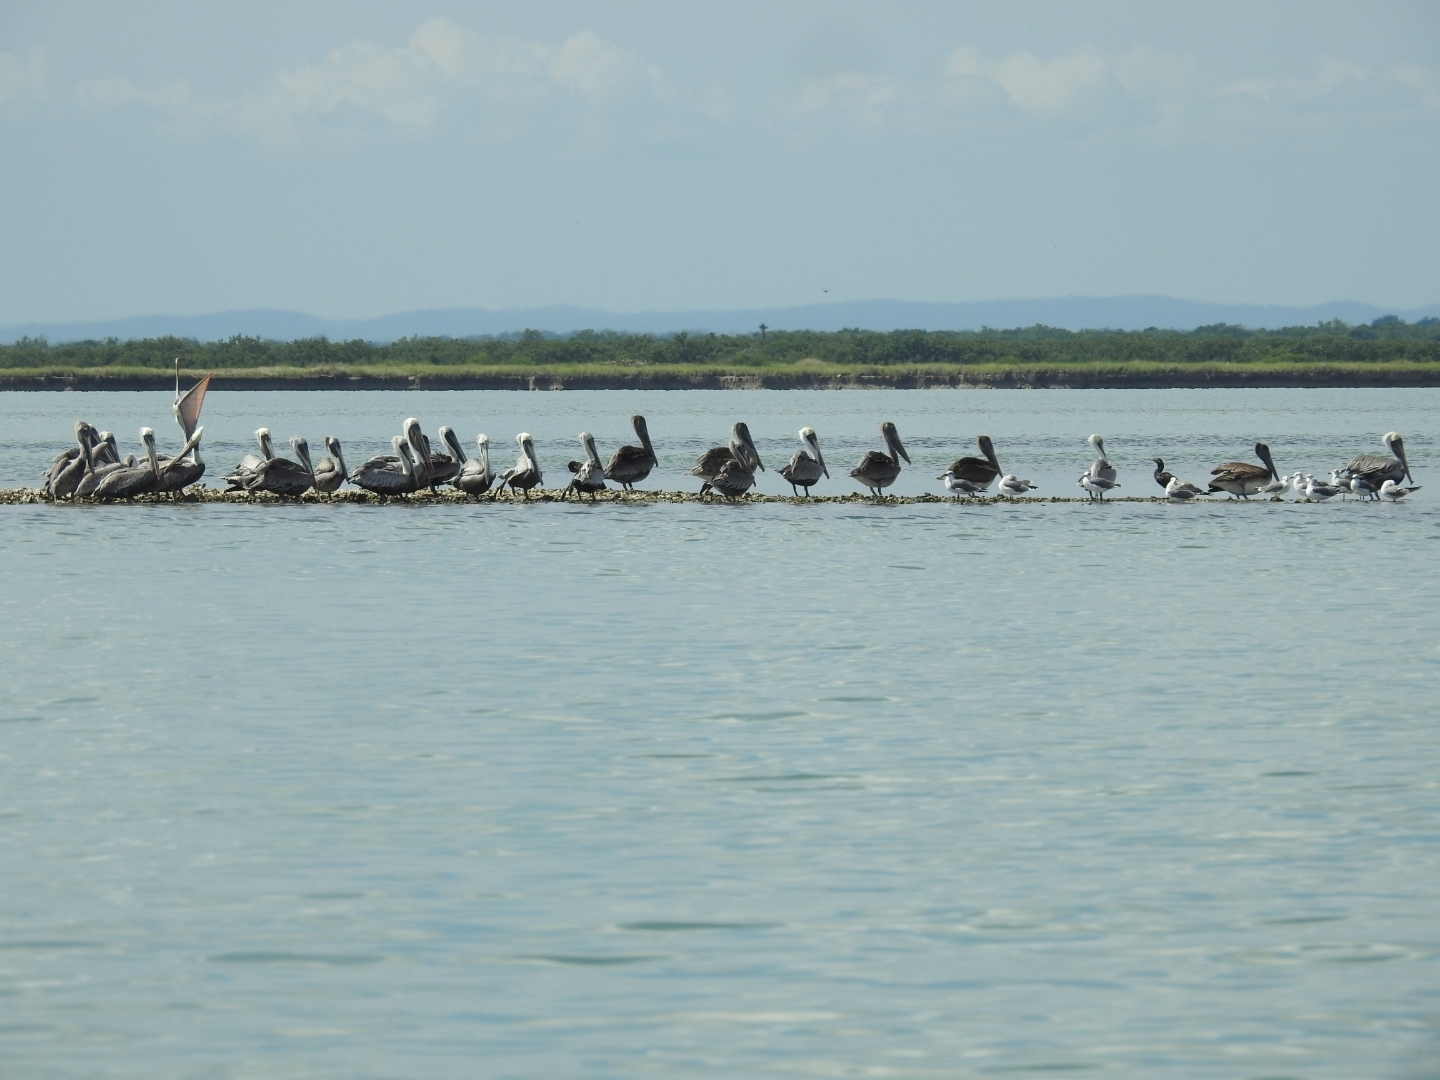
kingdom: Animalia
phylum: Chordata
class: Aves
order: Pelecaniformes
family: Pelecanidae
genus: Pelecanus
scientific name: Pelecanus occidentalis
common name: Brown pelican
